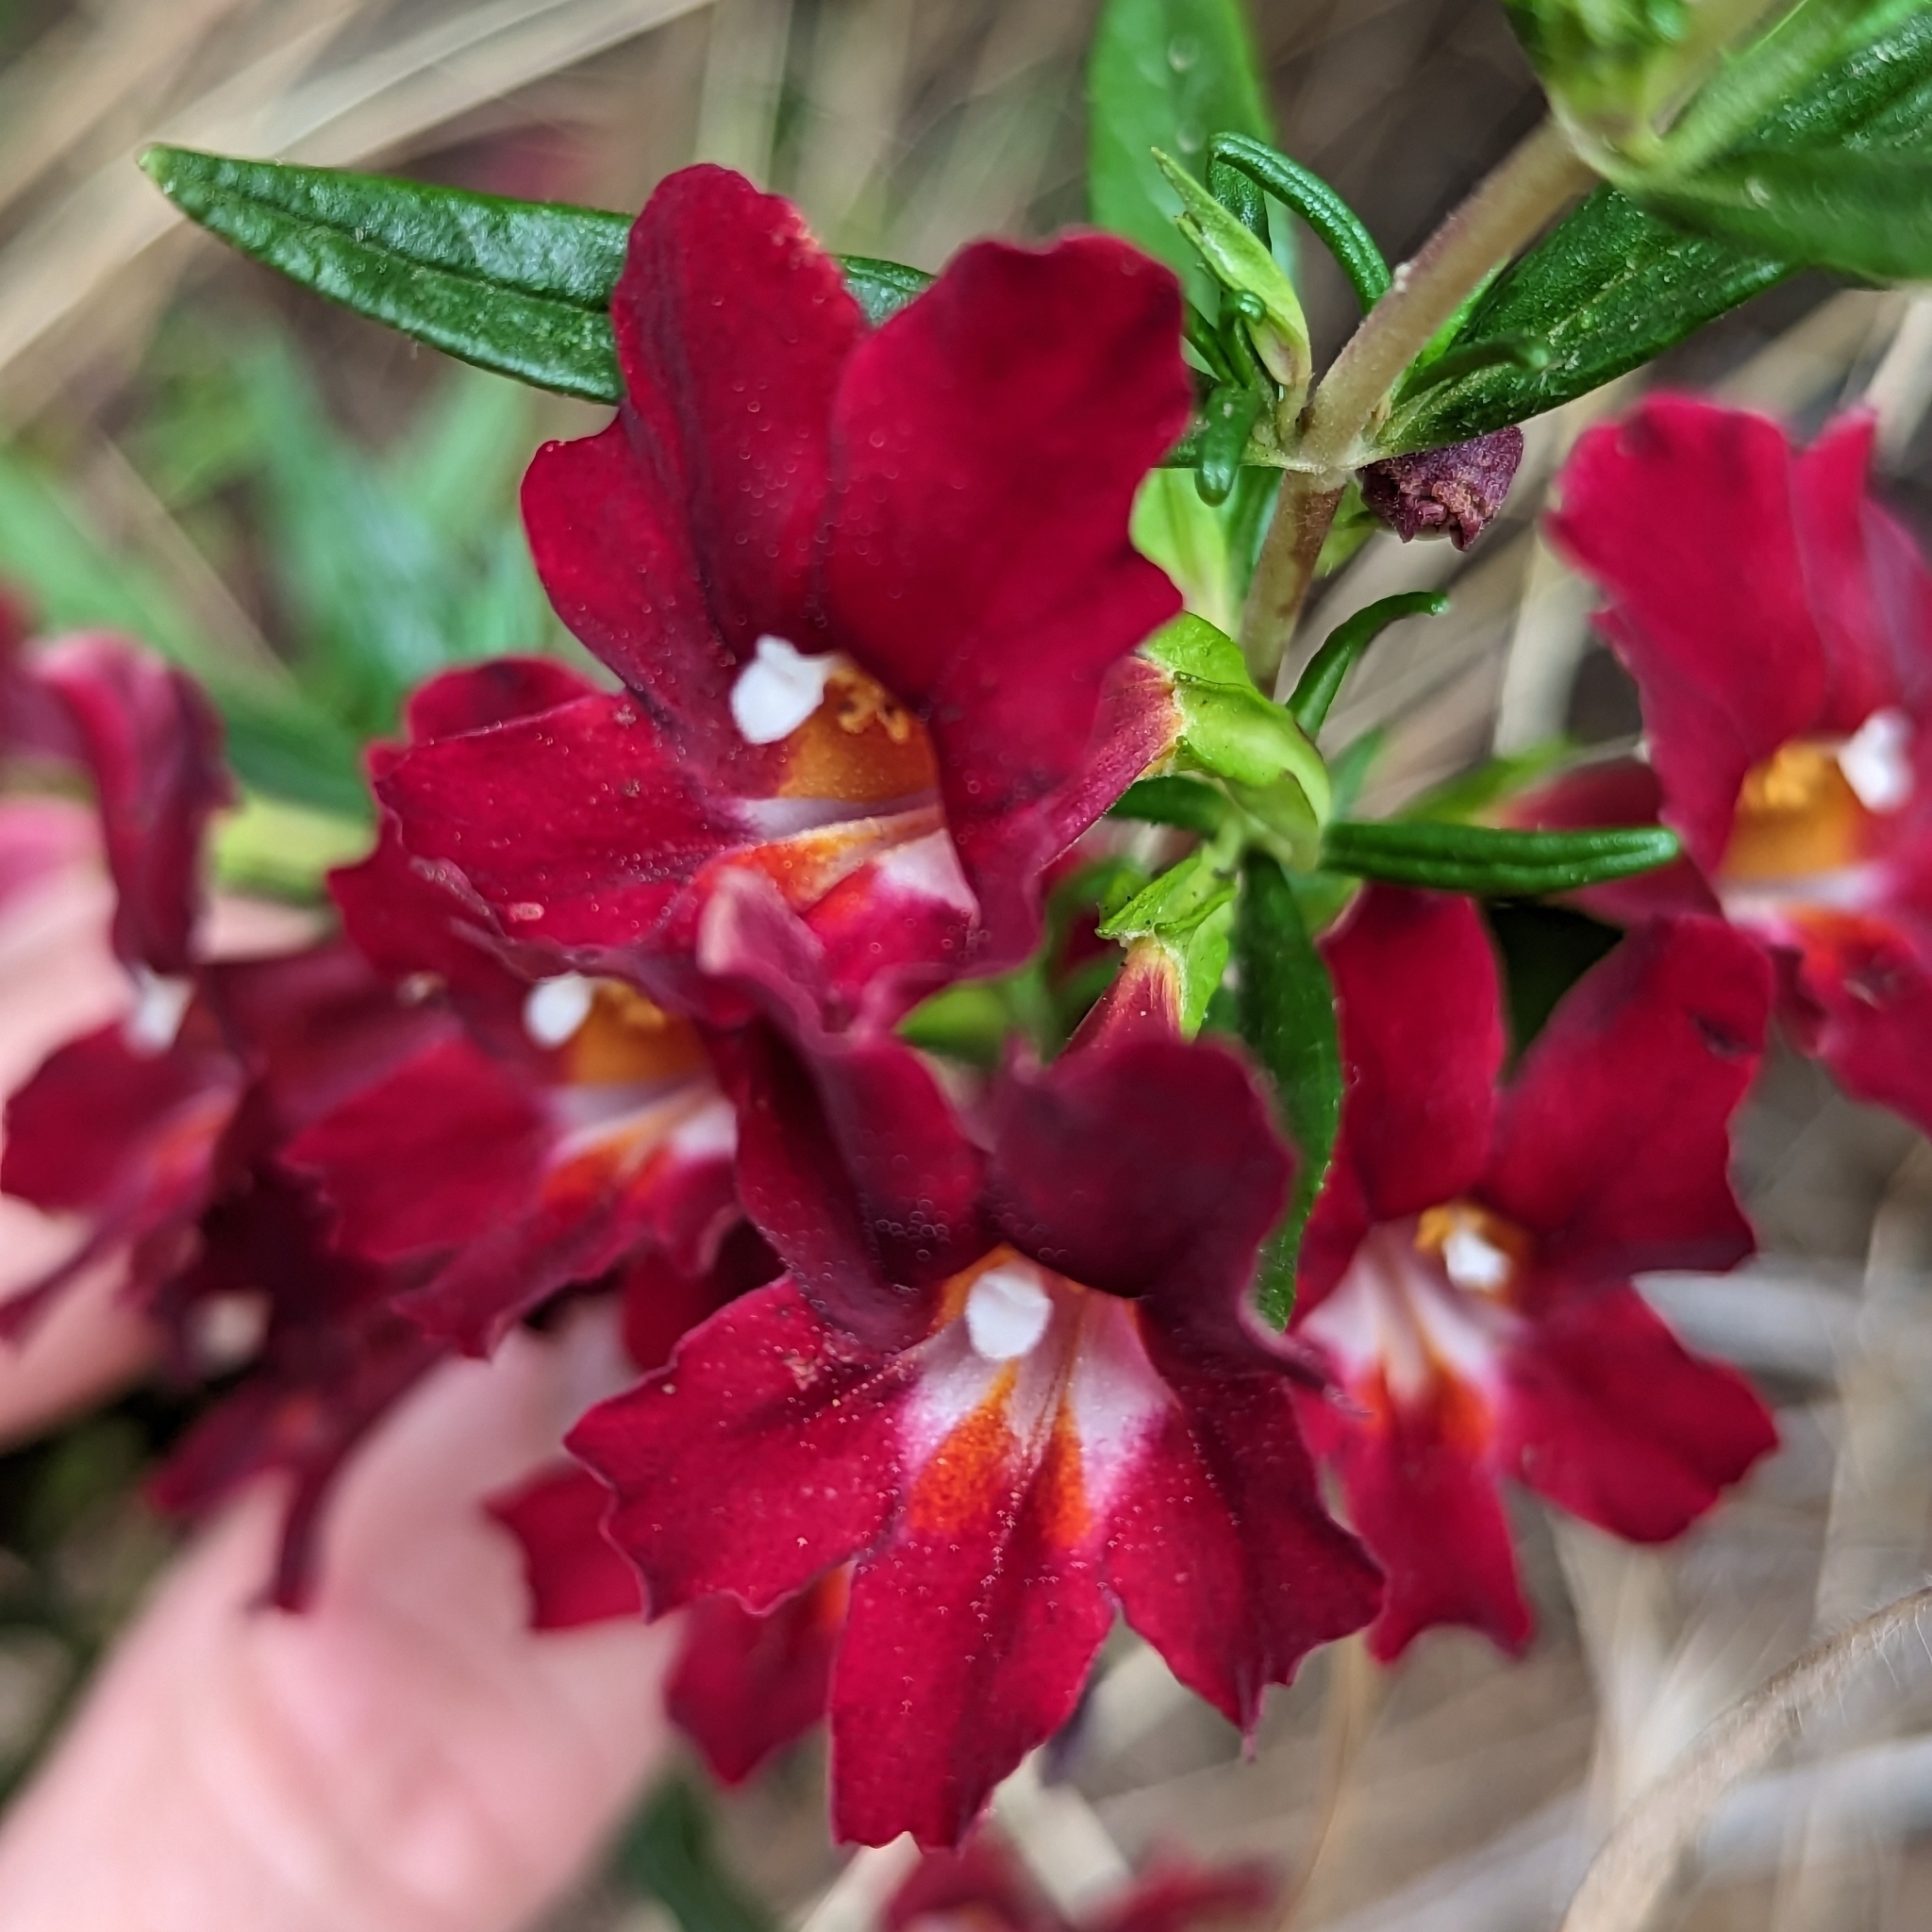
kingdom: Plantae
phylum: Tracheophyta
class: Magnoliopsida
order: Lamiales
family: Phrymaceae
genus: Diplacus
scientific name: Diplacus puniceus
